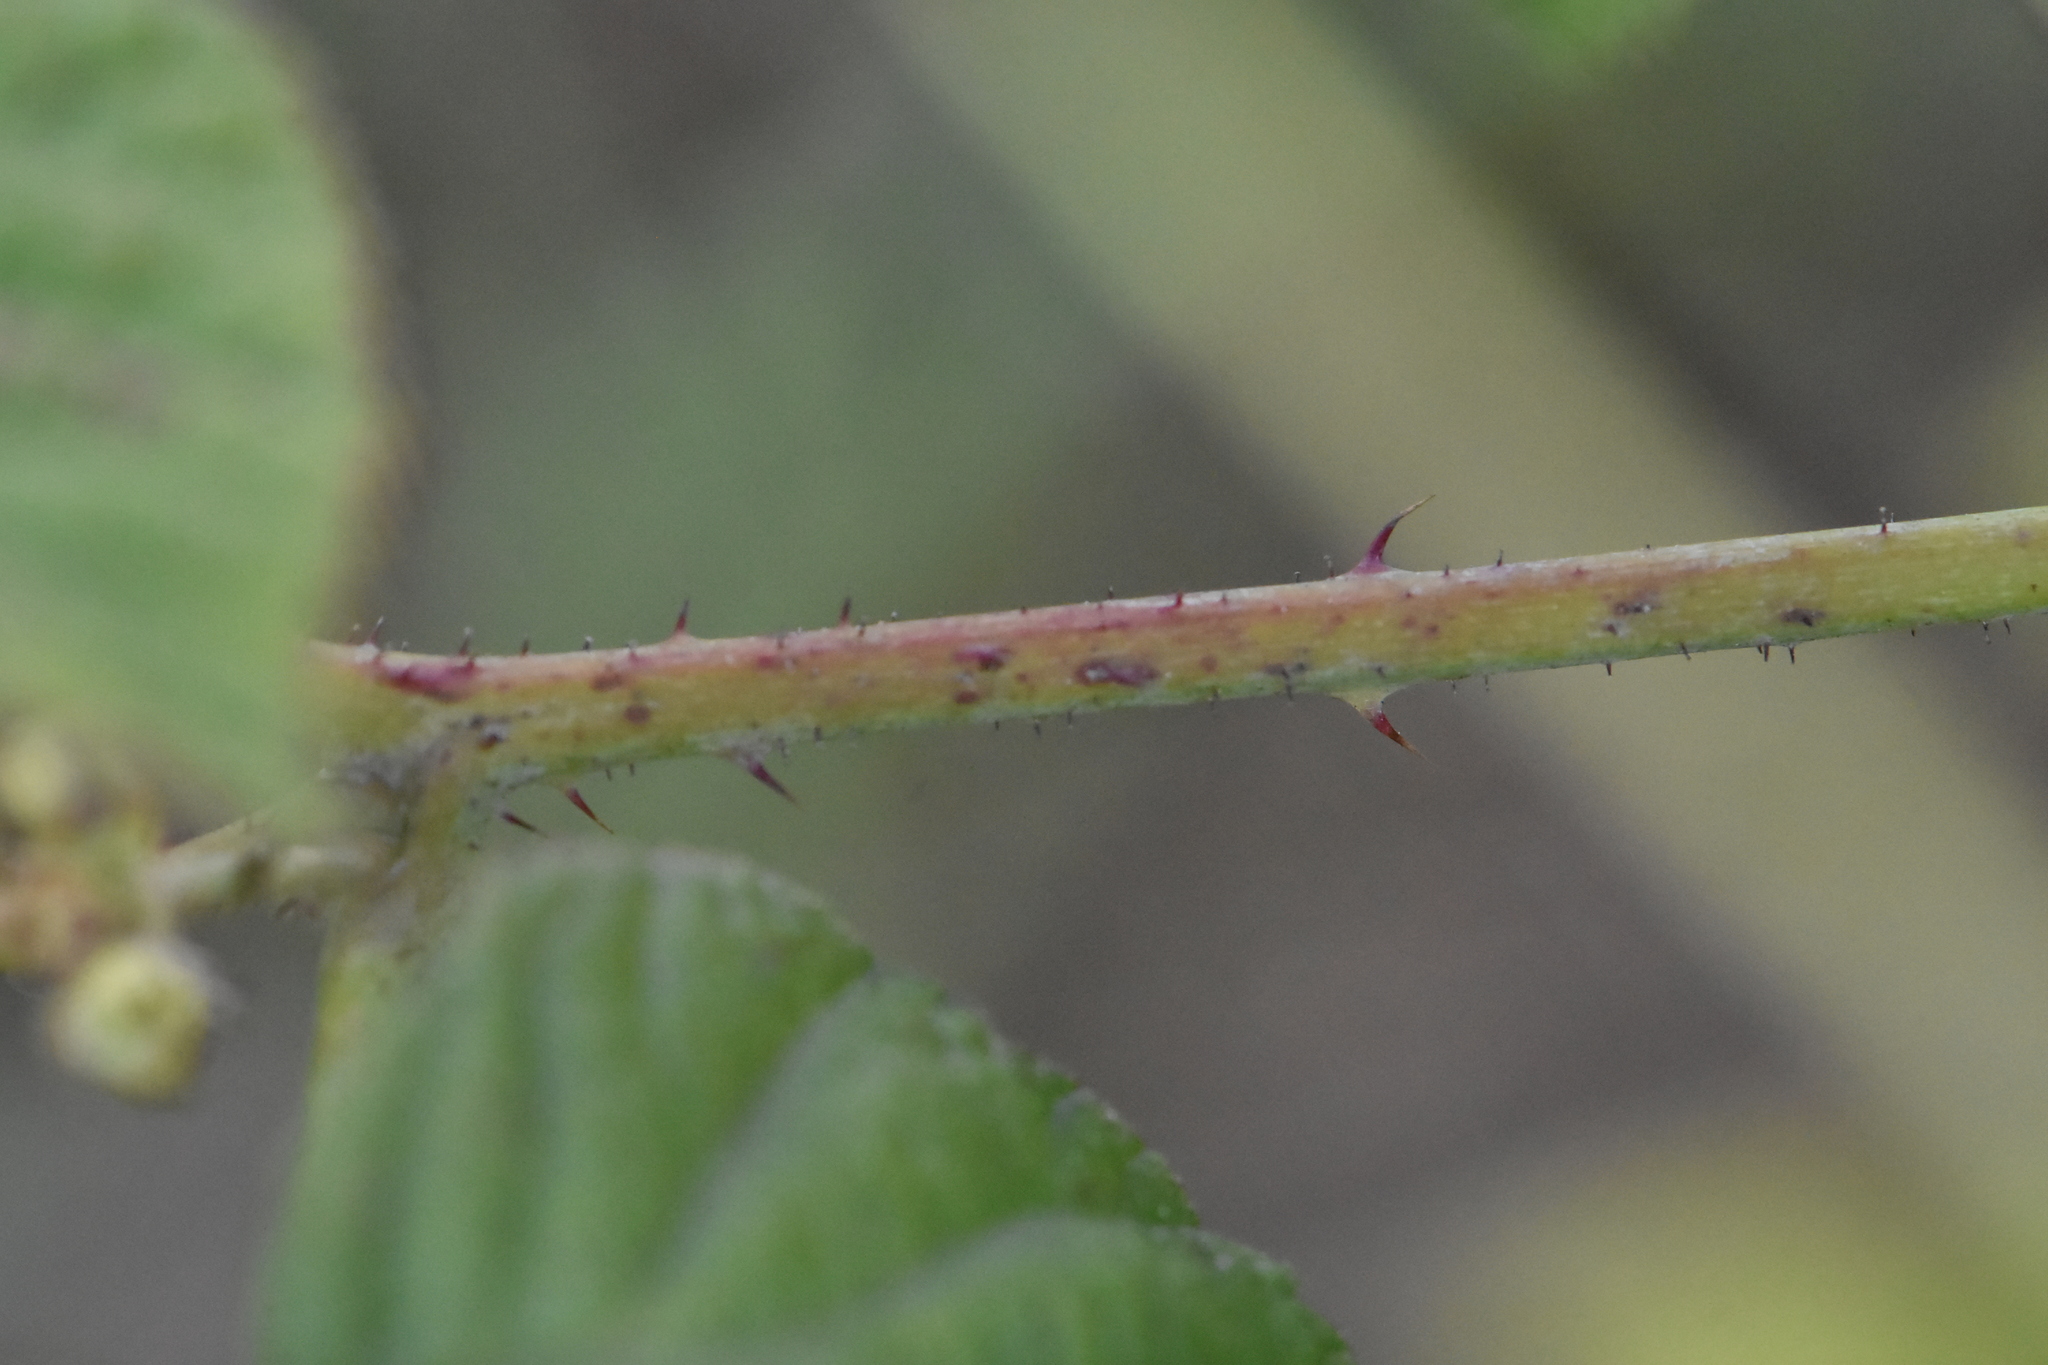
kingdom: Plantae
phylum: Tracheophyta
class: Magnoliopsida
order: Rosales
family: Rosaceae
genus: Rubus
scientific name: Rubus caesius
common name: Dewberry
